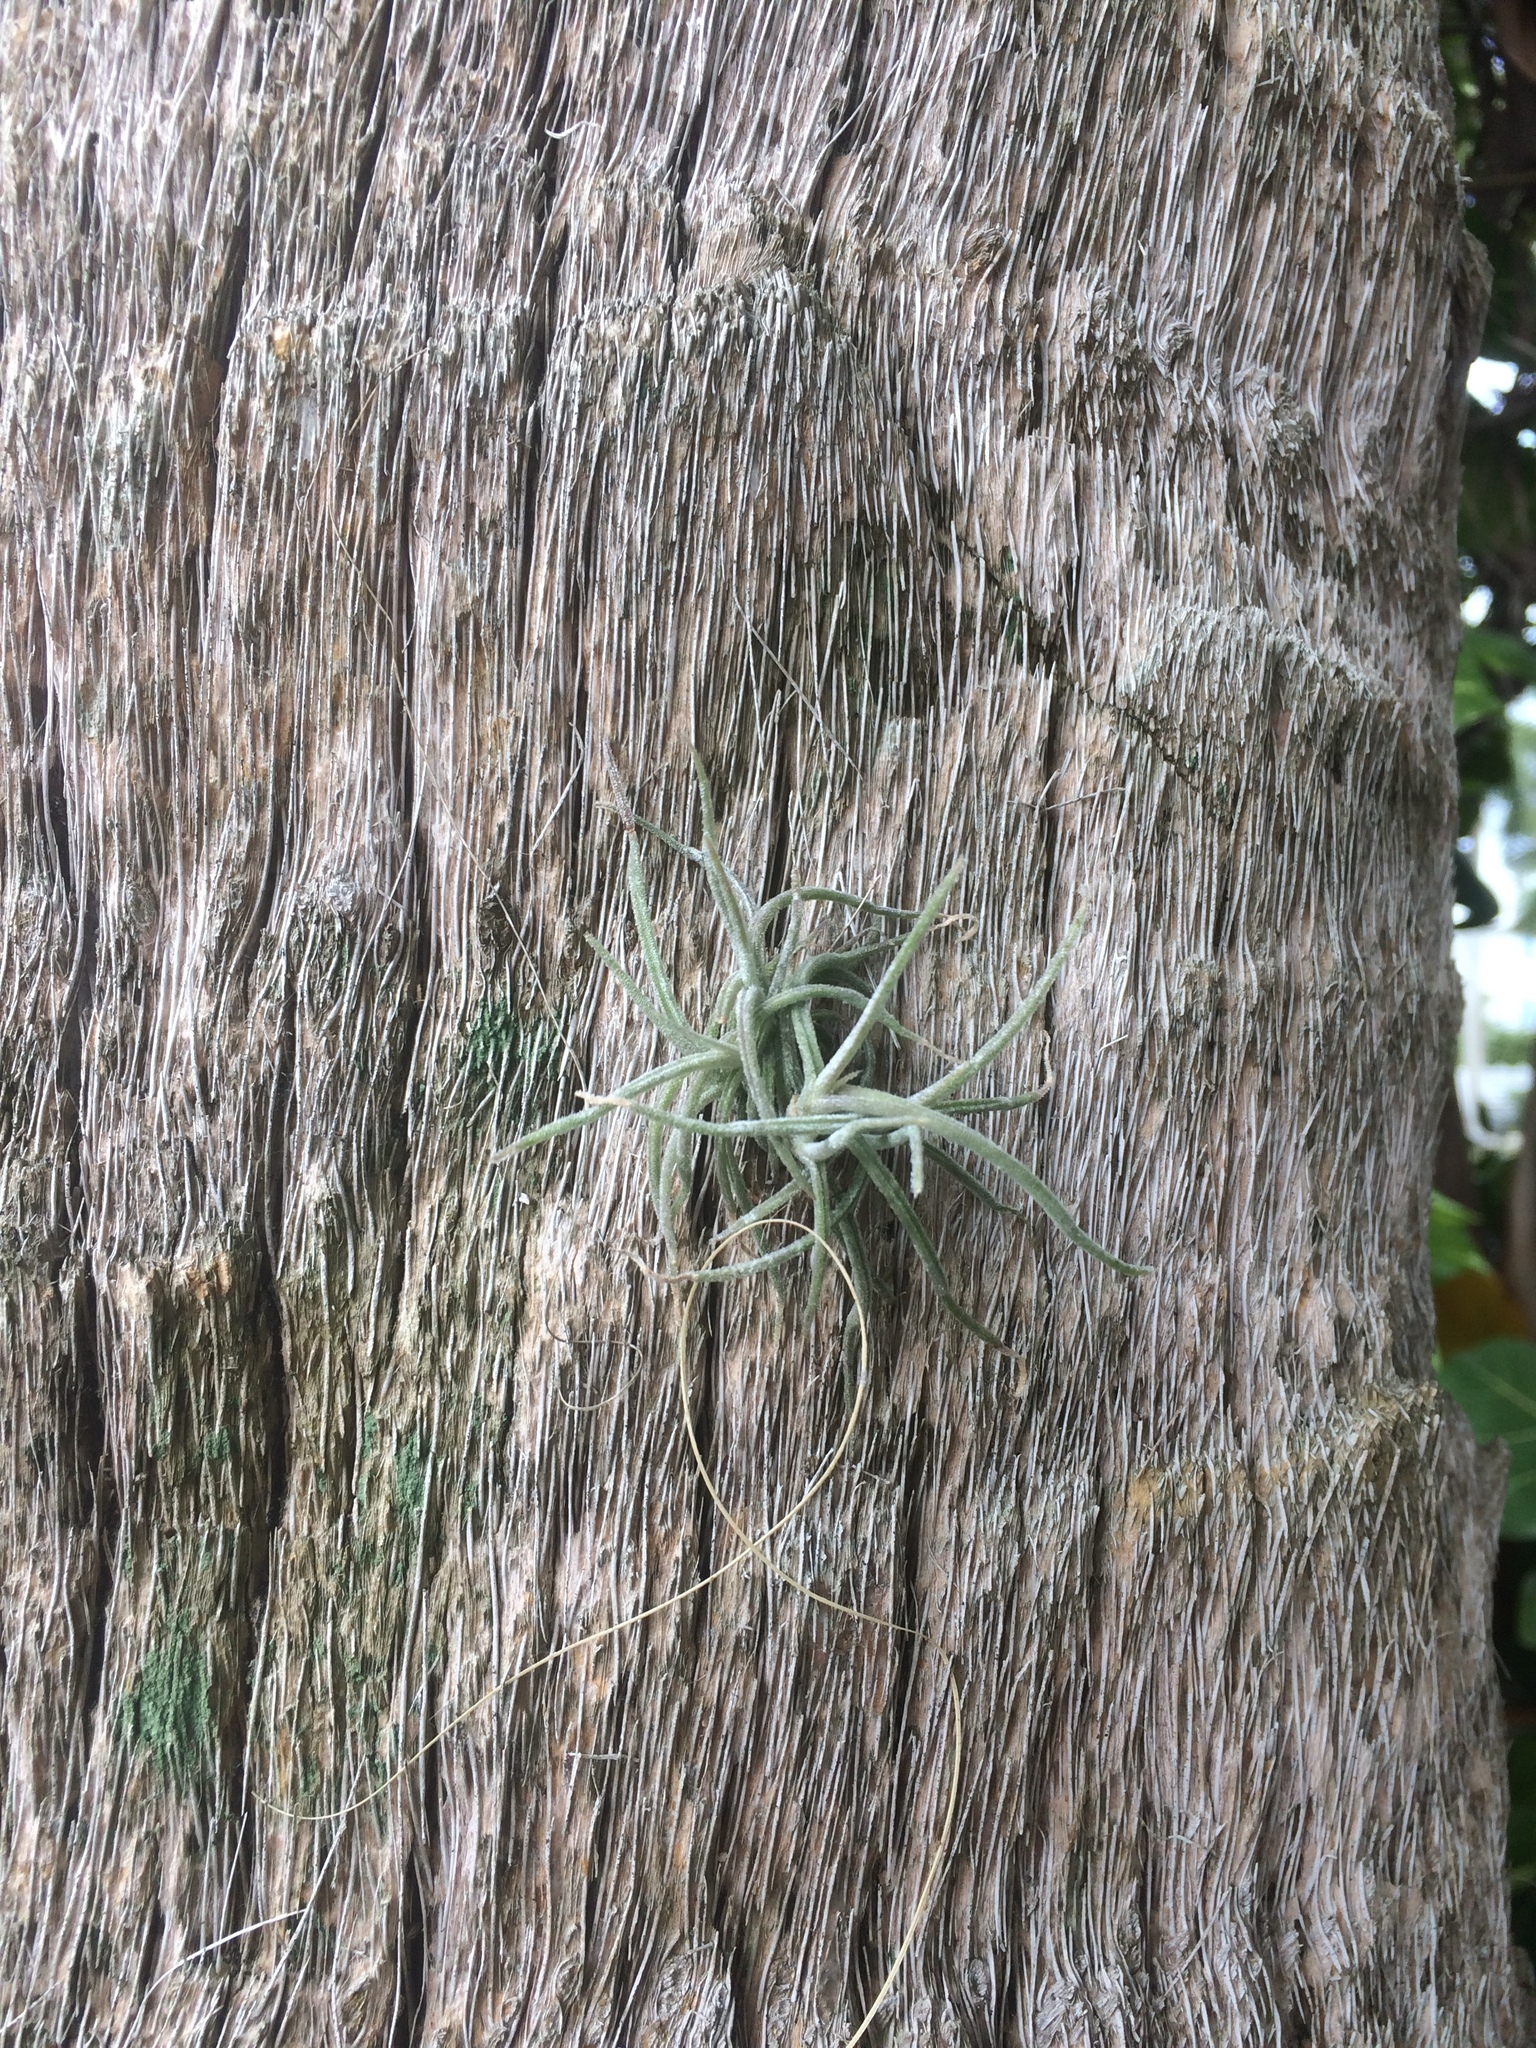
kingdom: Plantae
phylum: Tracheophyta
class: Liliopsida
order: Poales
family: Bromeliaceae
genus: Tillandsia
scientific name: Tillandsia recurvata
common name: Small ballmoss
